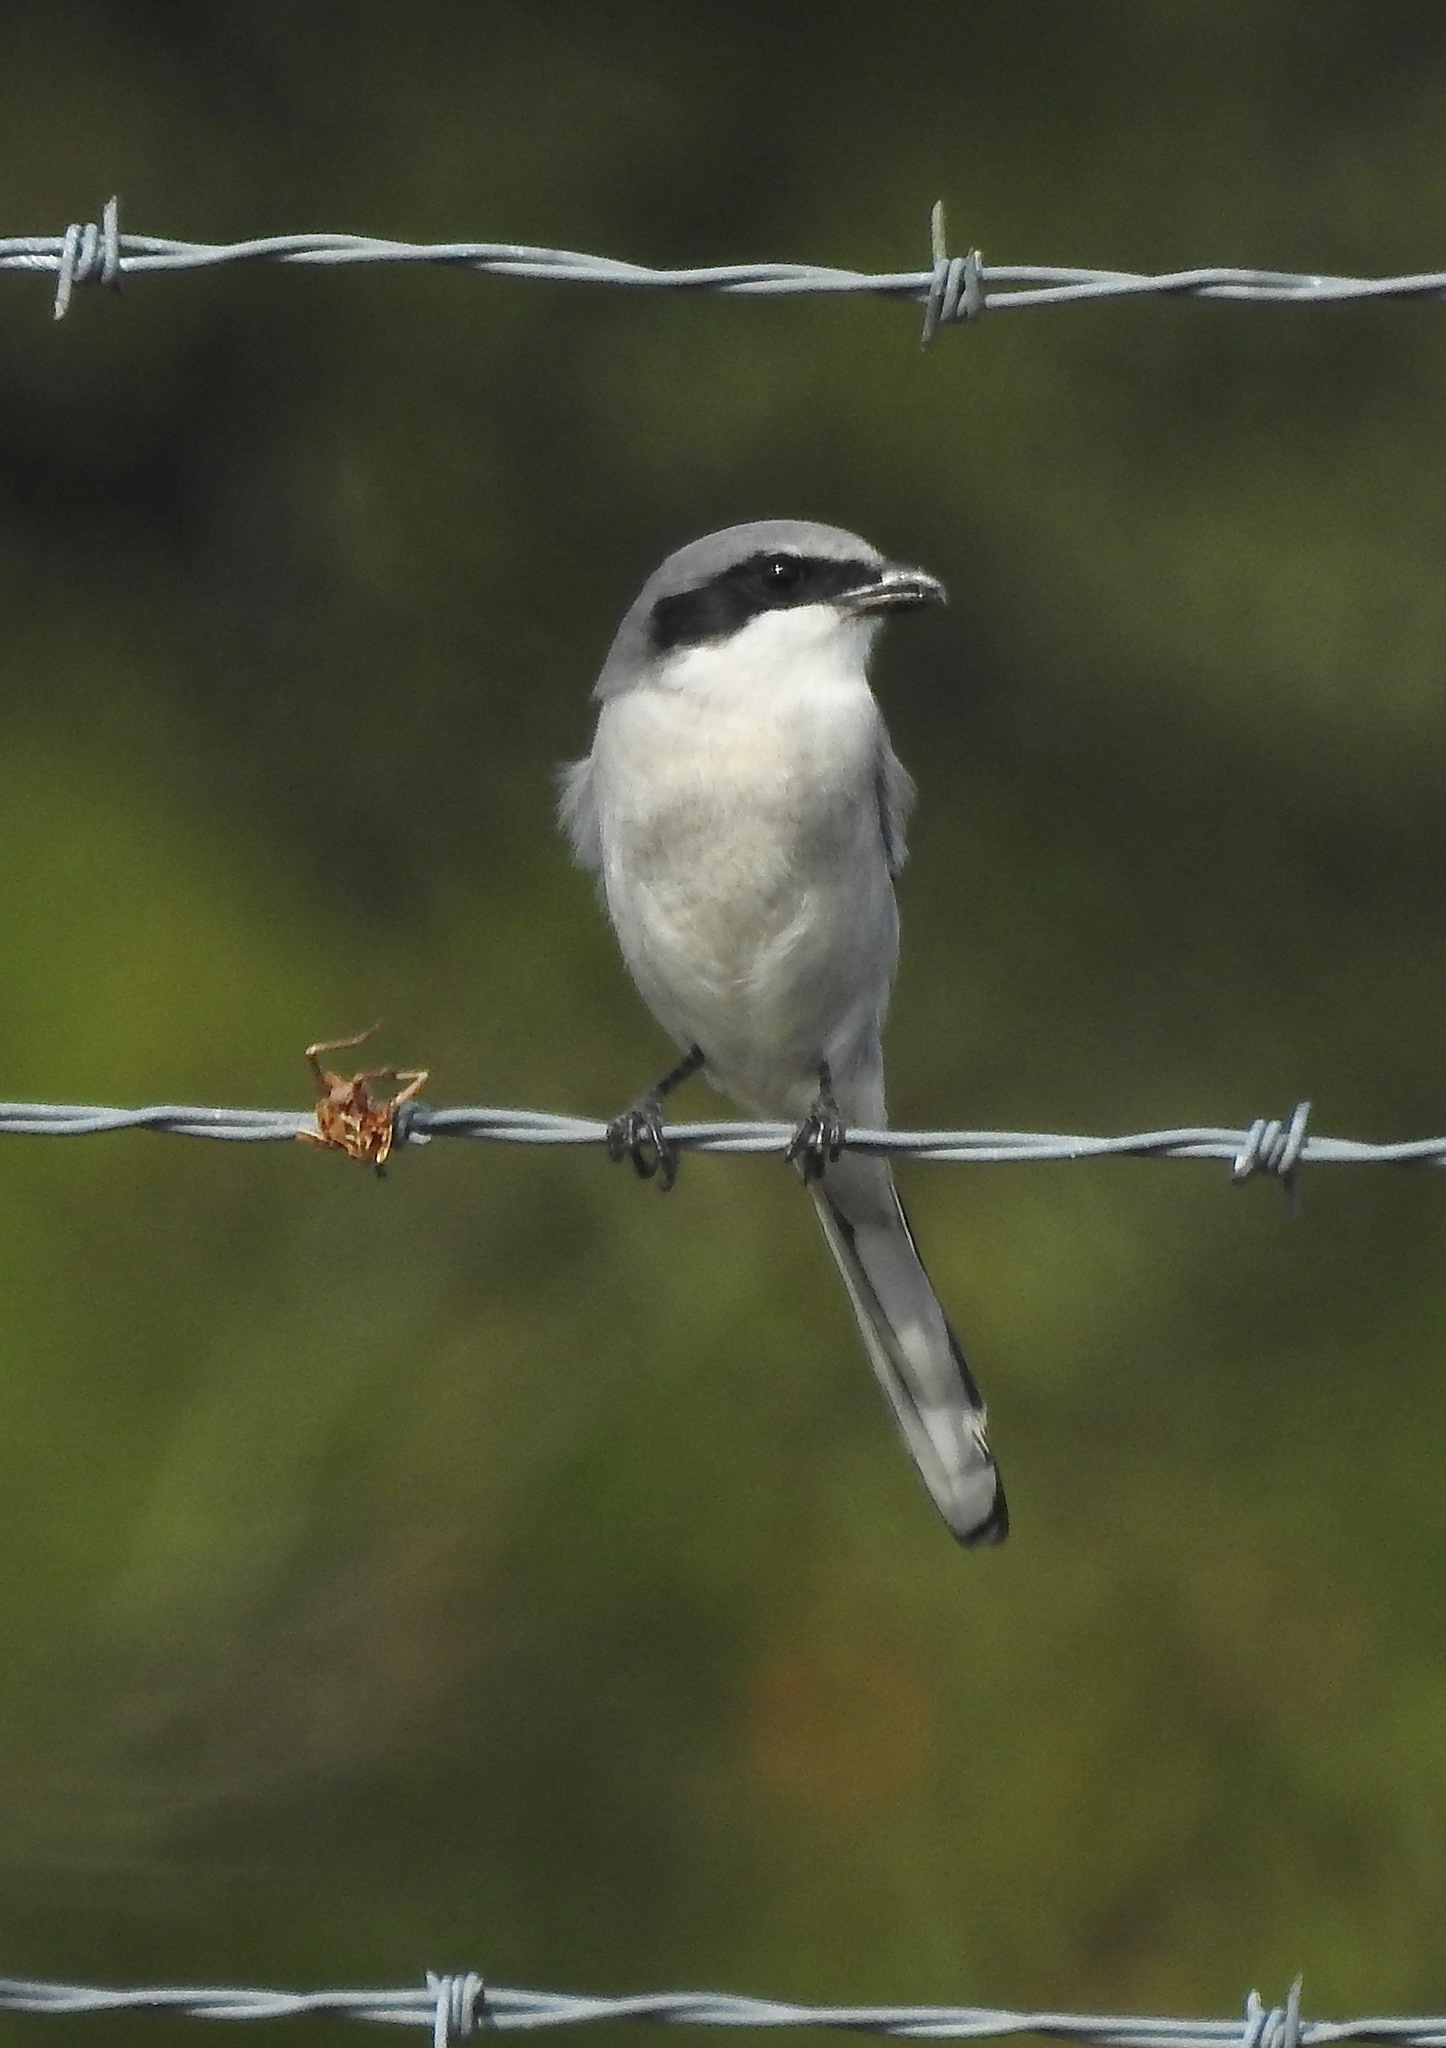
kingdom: Animalia
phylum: Chordata
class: Aves
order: Passeriformes
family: Laniidae
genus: Lanius
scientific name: Lanius ludovicianus
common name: Loggerhead shrike
